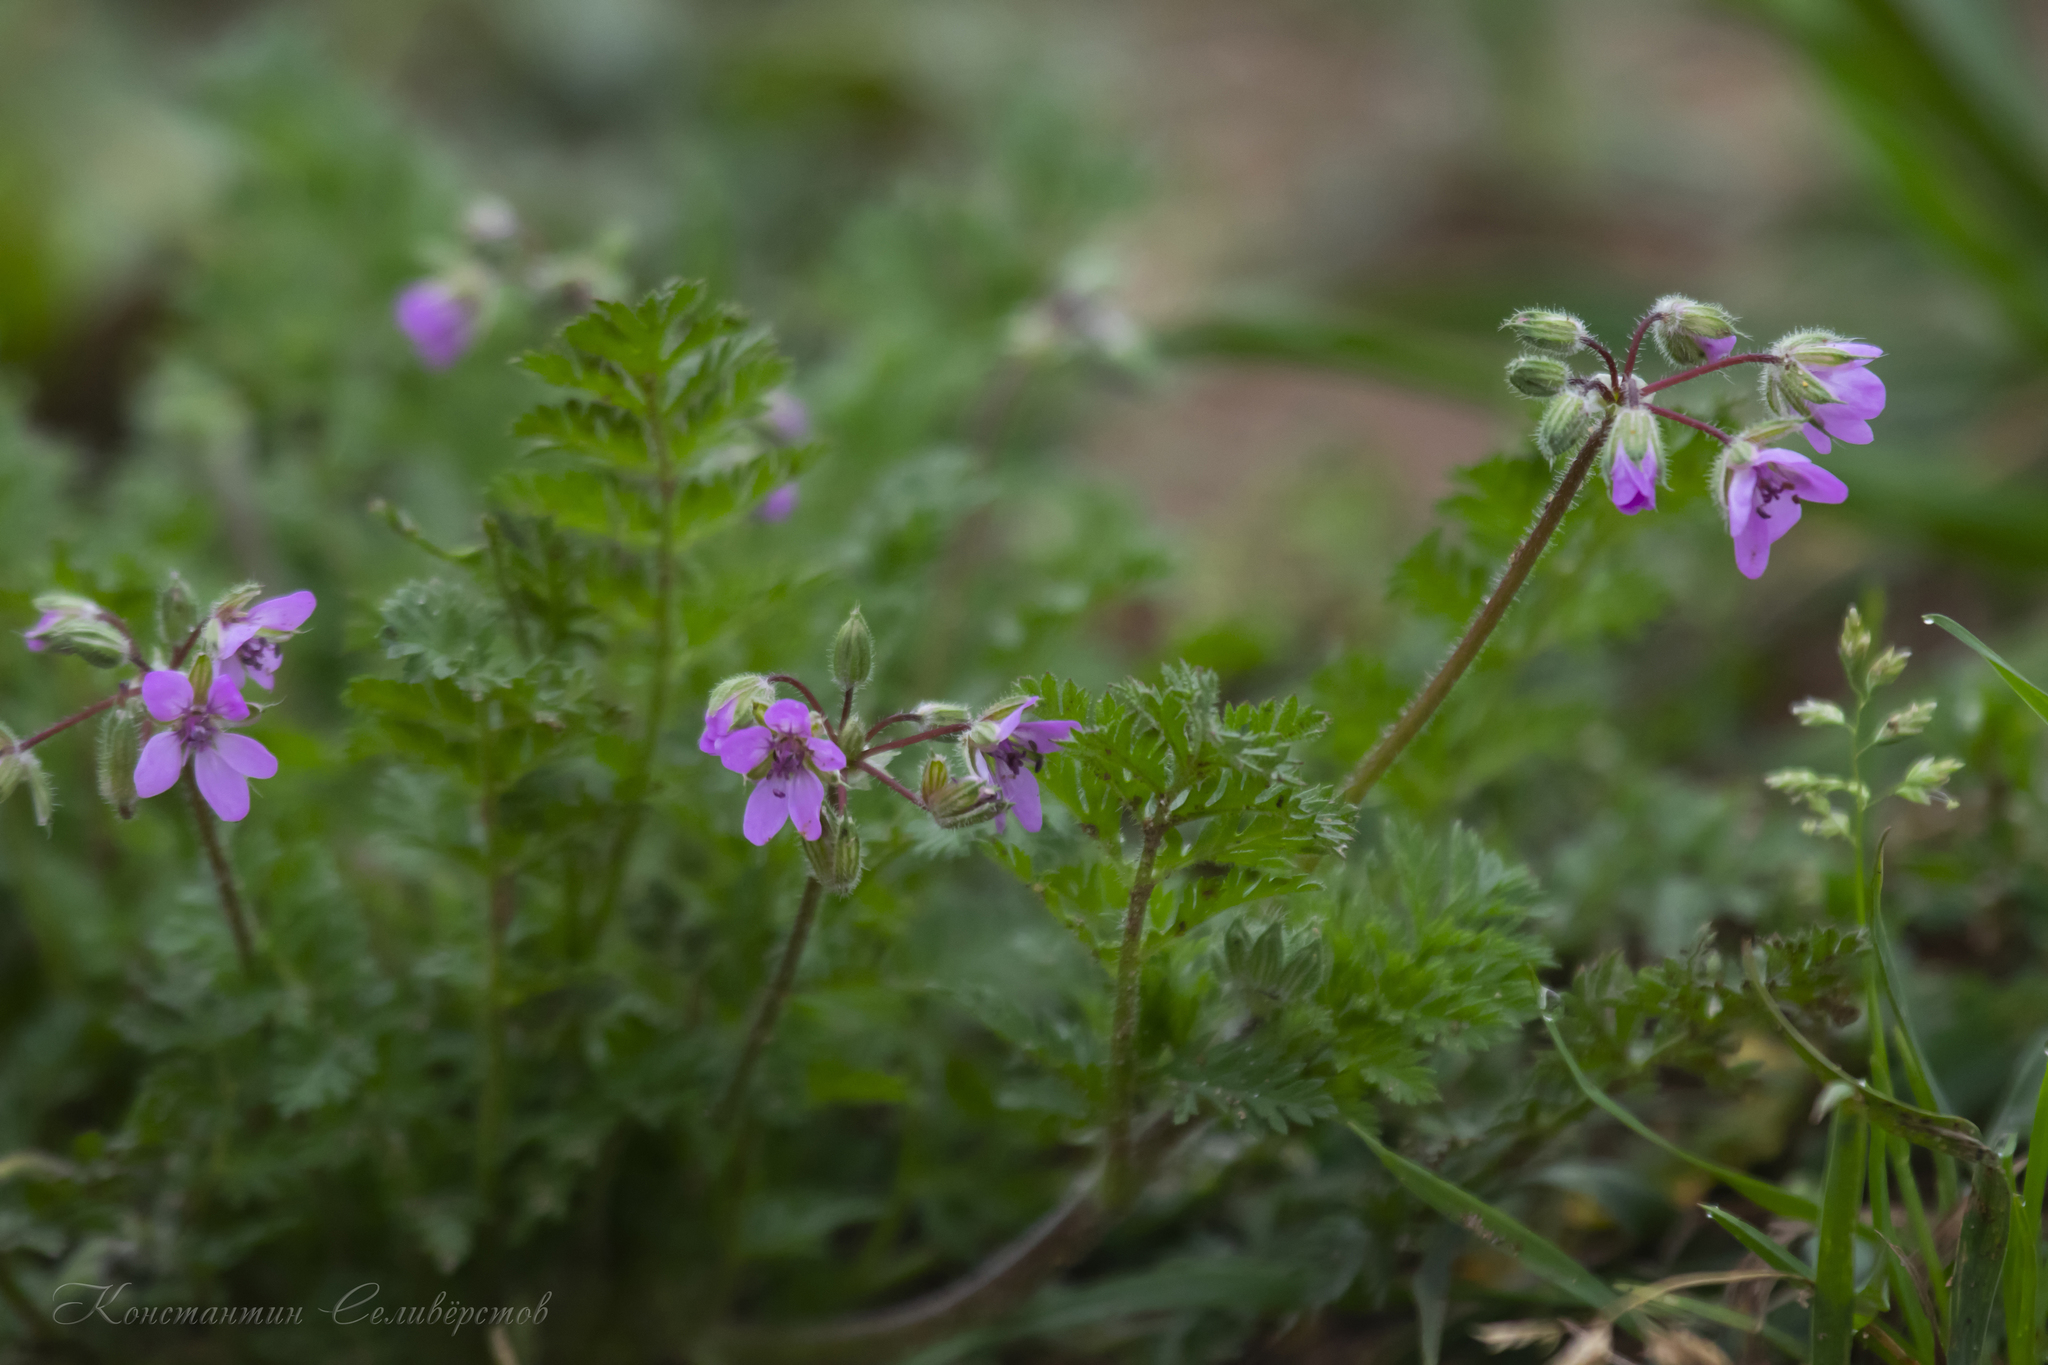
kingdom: Plantae
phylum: Tracheophyta
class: Magnoliopsida
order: Geraniales
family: Geraniaceae
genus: Erodium
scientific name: Erodium cicutarium
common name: Common stork's-bill
